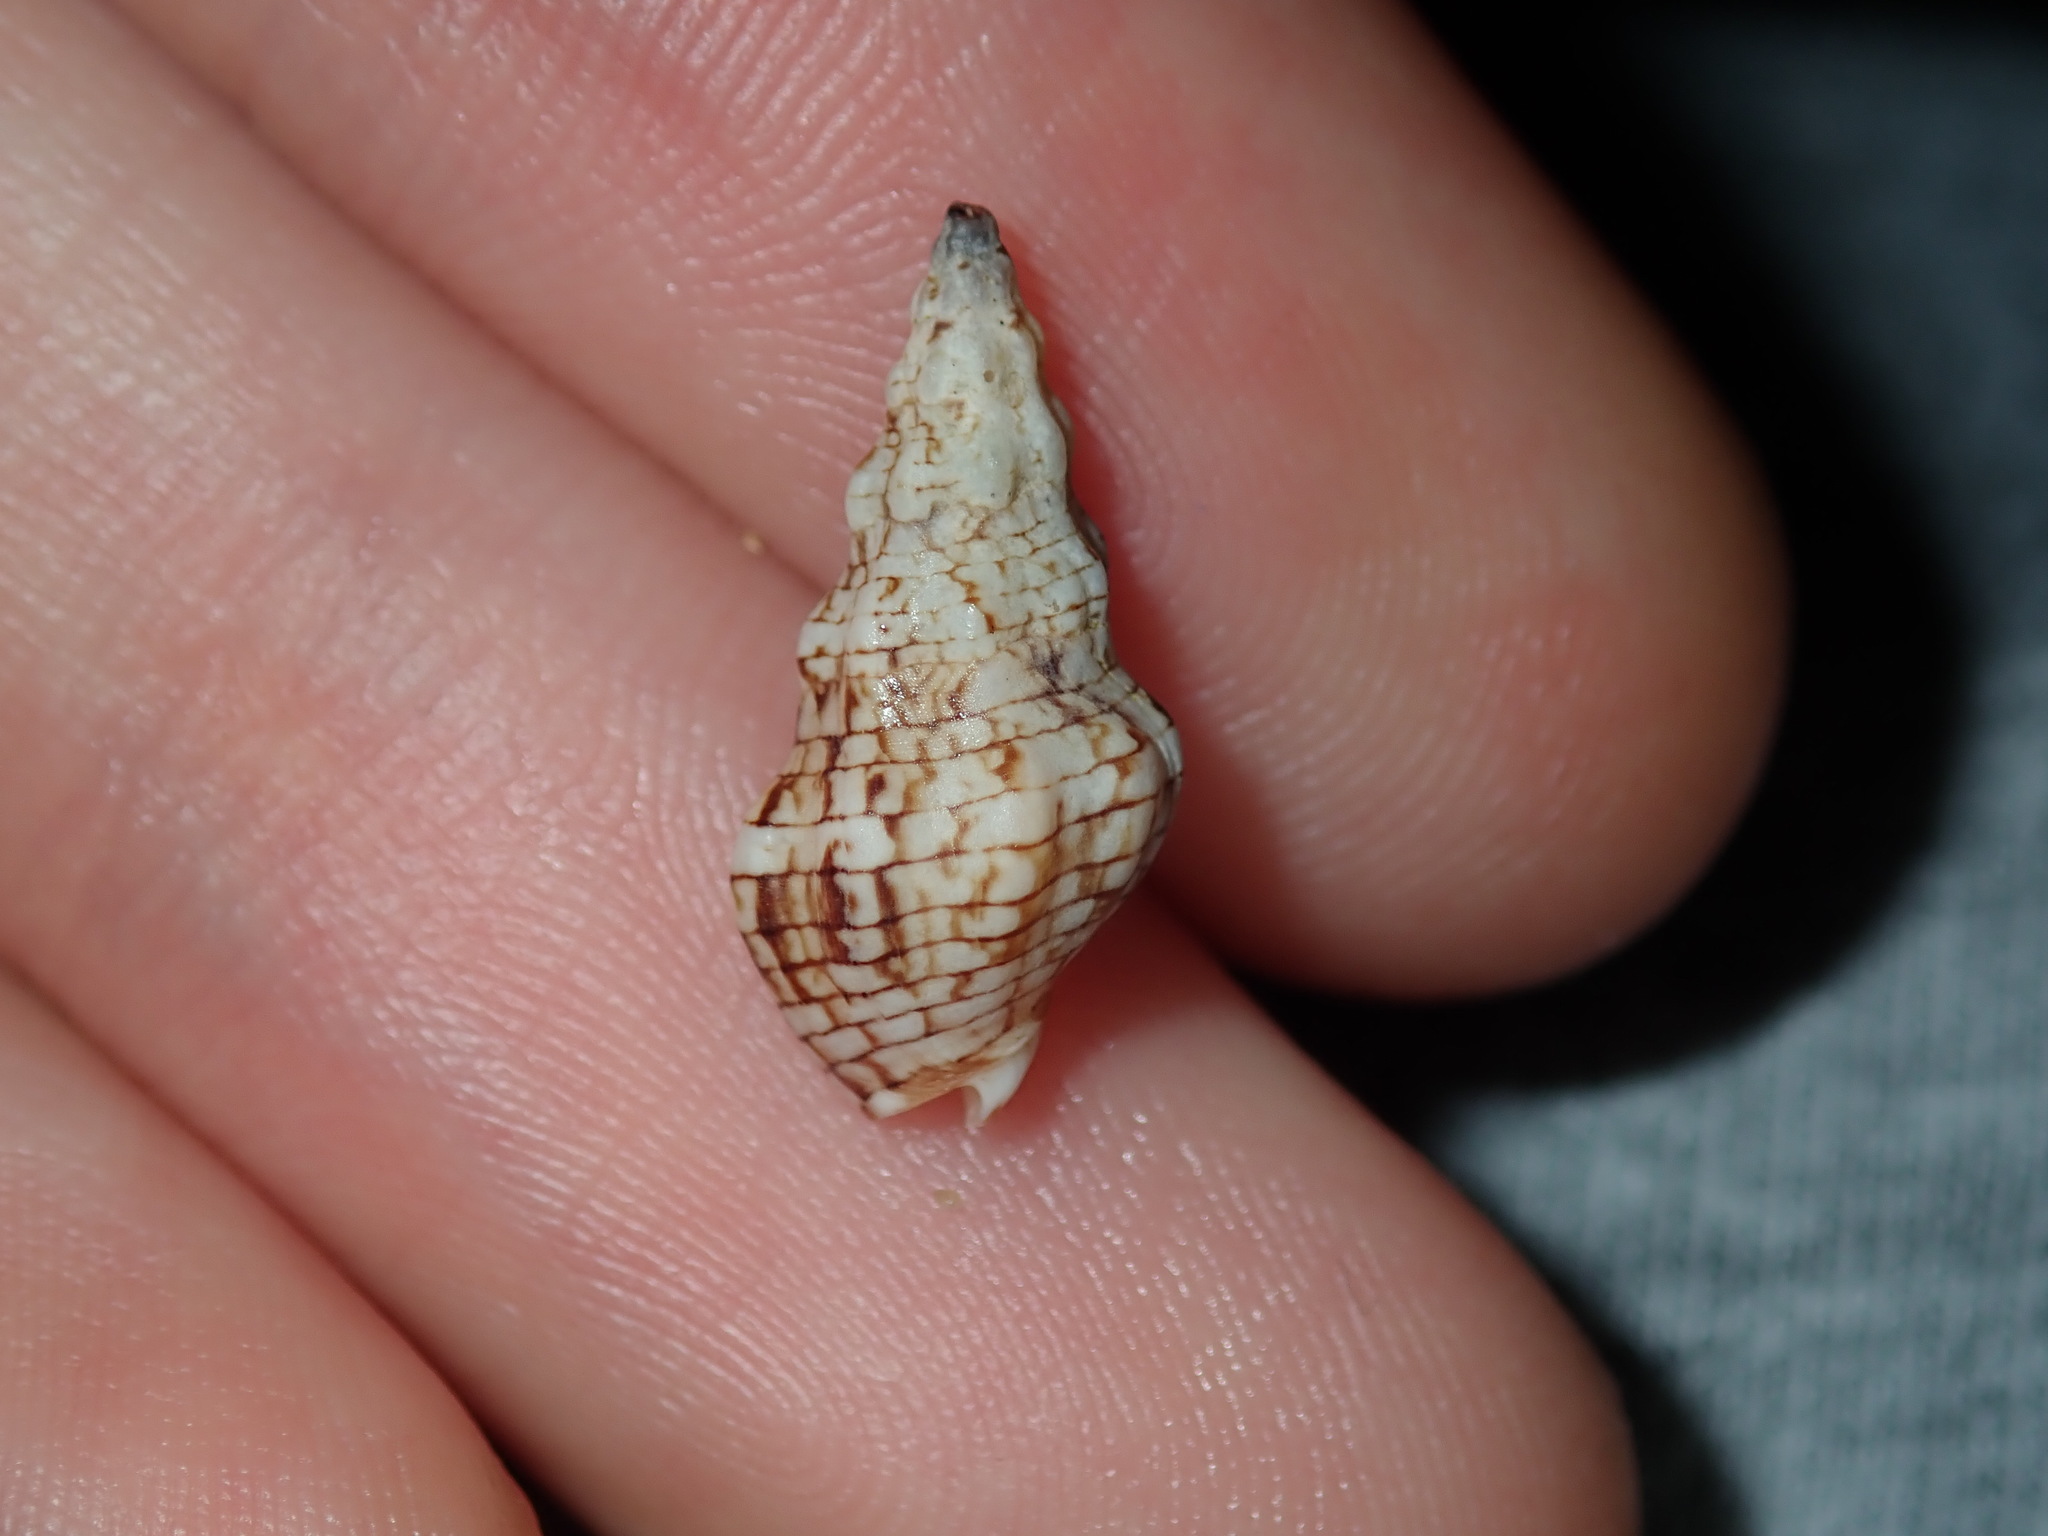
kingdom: Animalia
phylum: Mollusca
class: Gastropoda
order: Neogastropoda
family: Cominellidae
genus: Cominella
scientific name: Cominella eburnea
